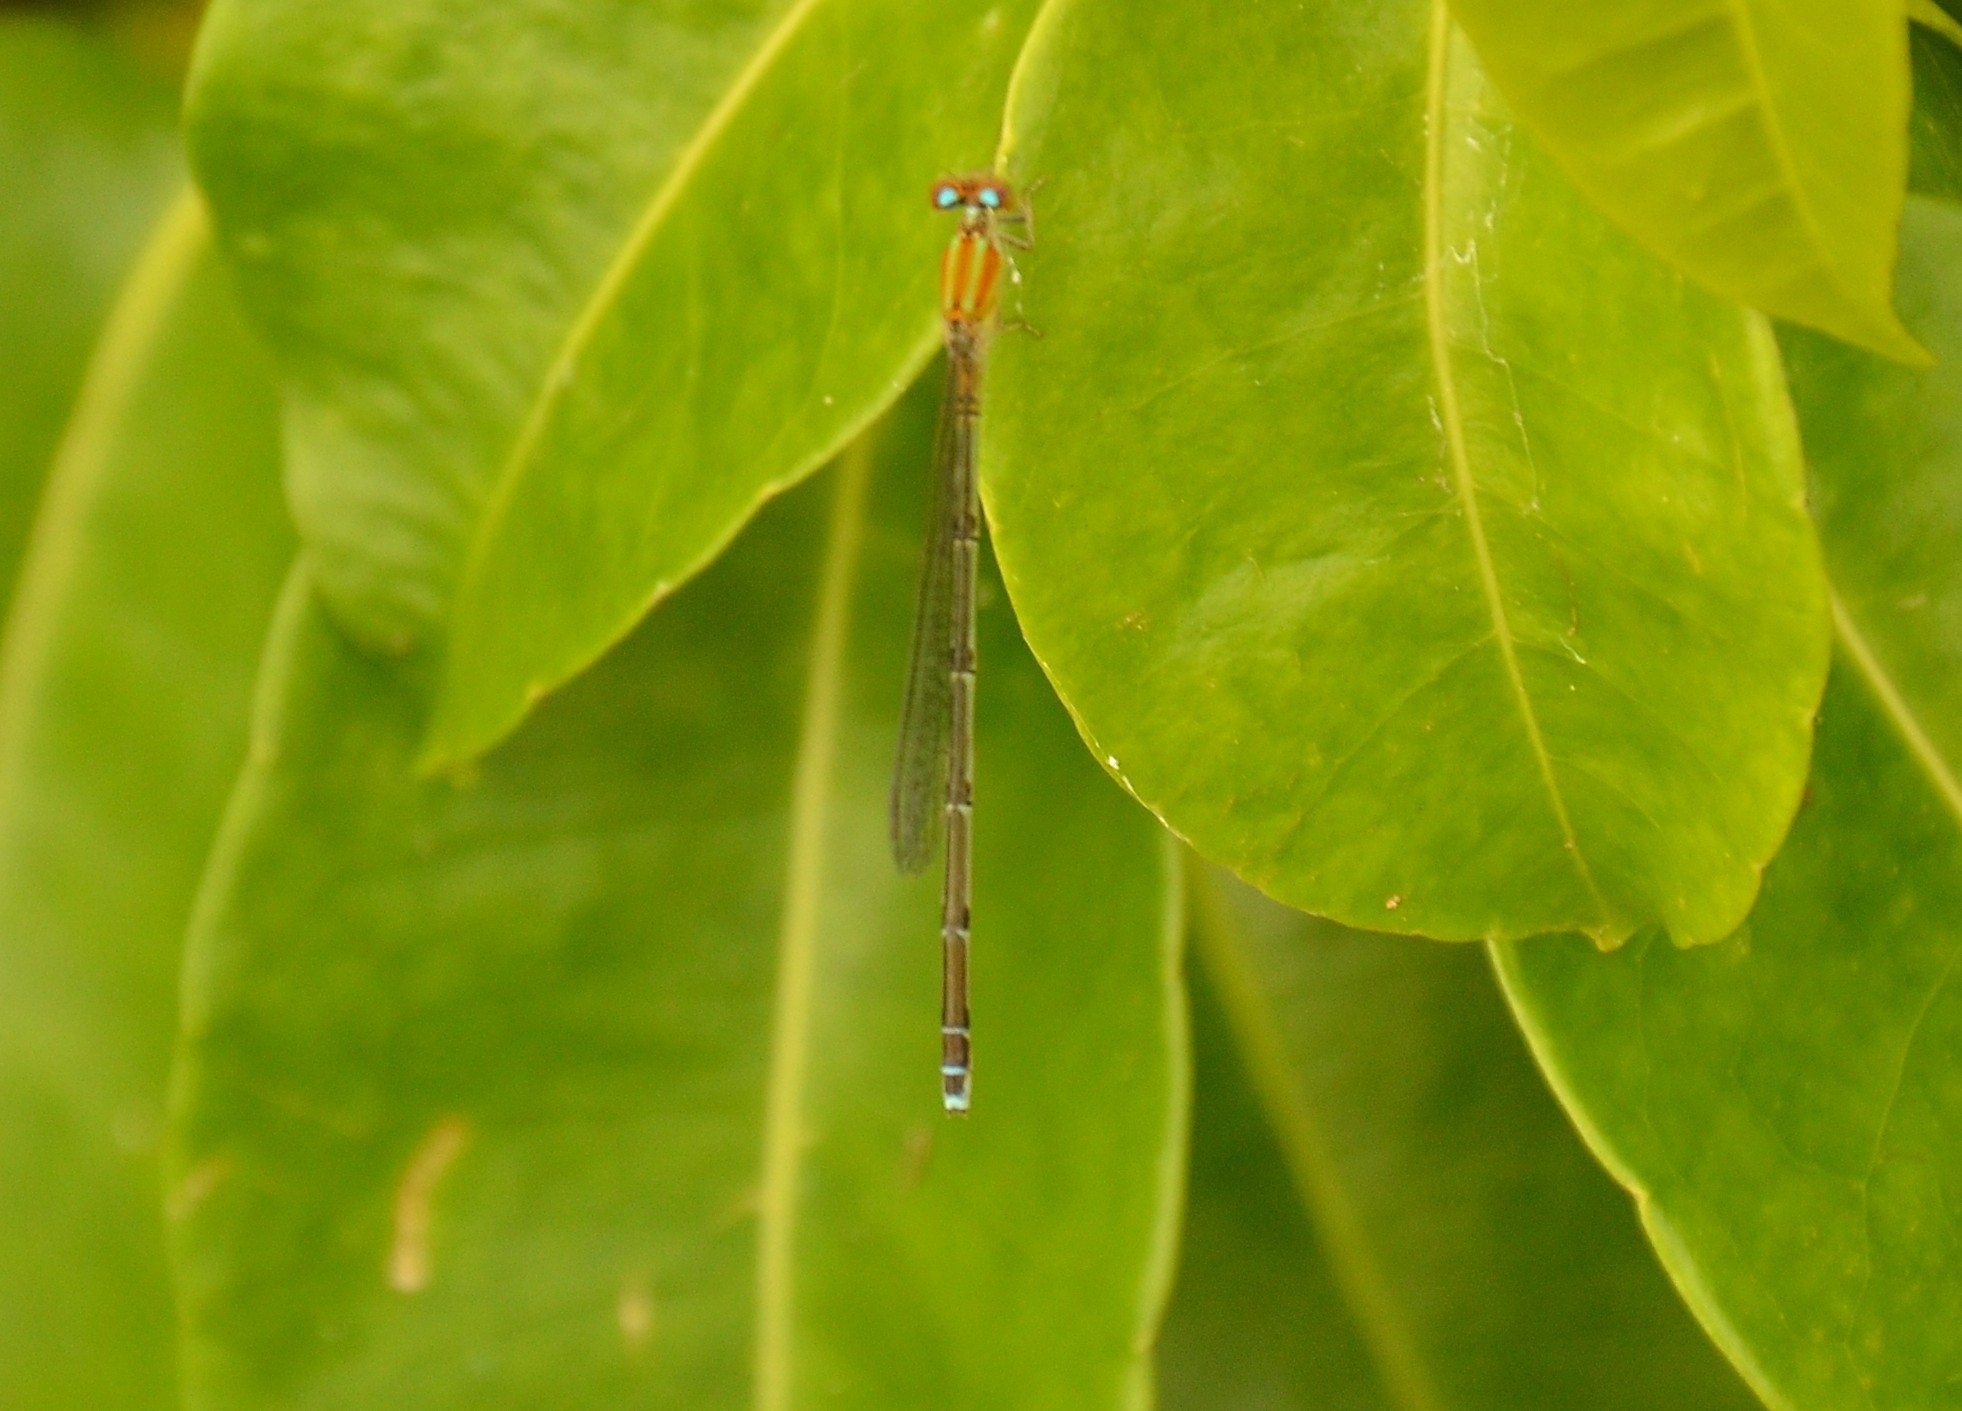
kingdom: Animalia
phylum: Arthropoda
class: Insecta
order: Odonata
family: Coenagrionidae
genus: Pseudagrion
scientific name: Pseudagrion microcephalum
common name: Blue riverdamsel
